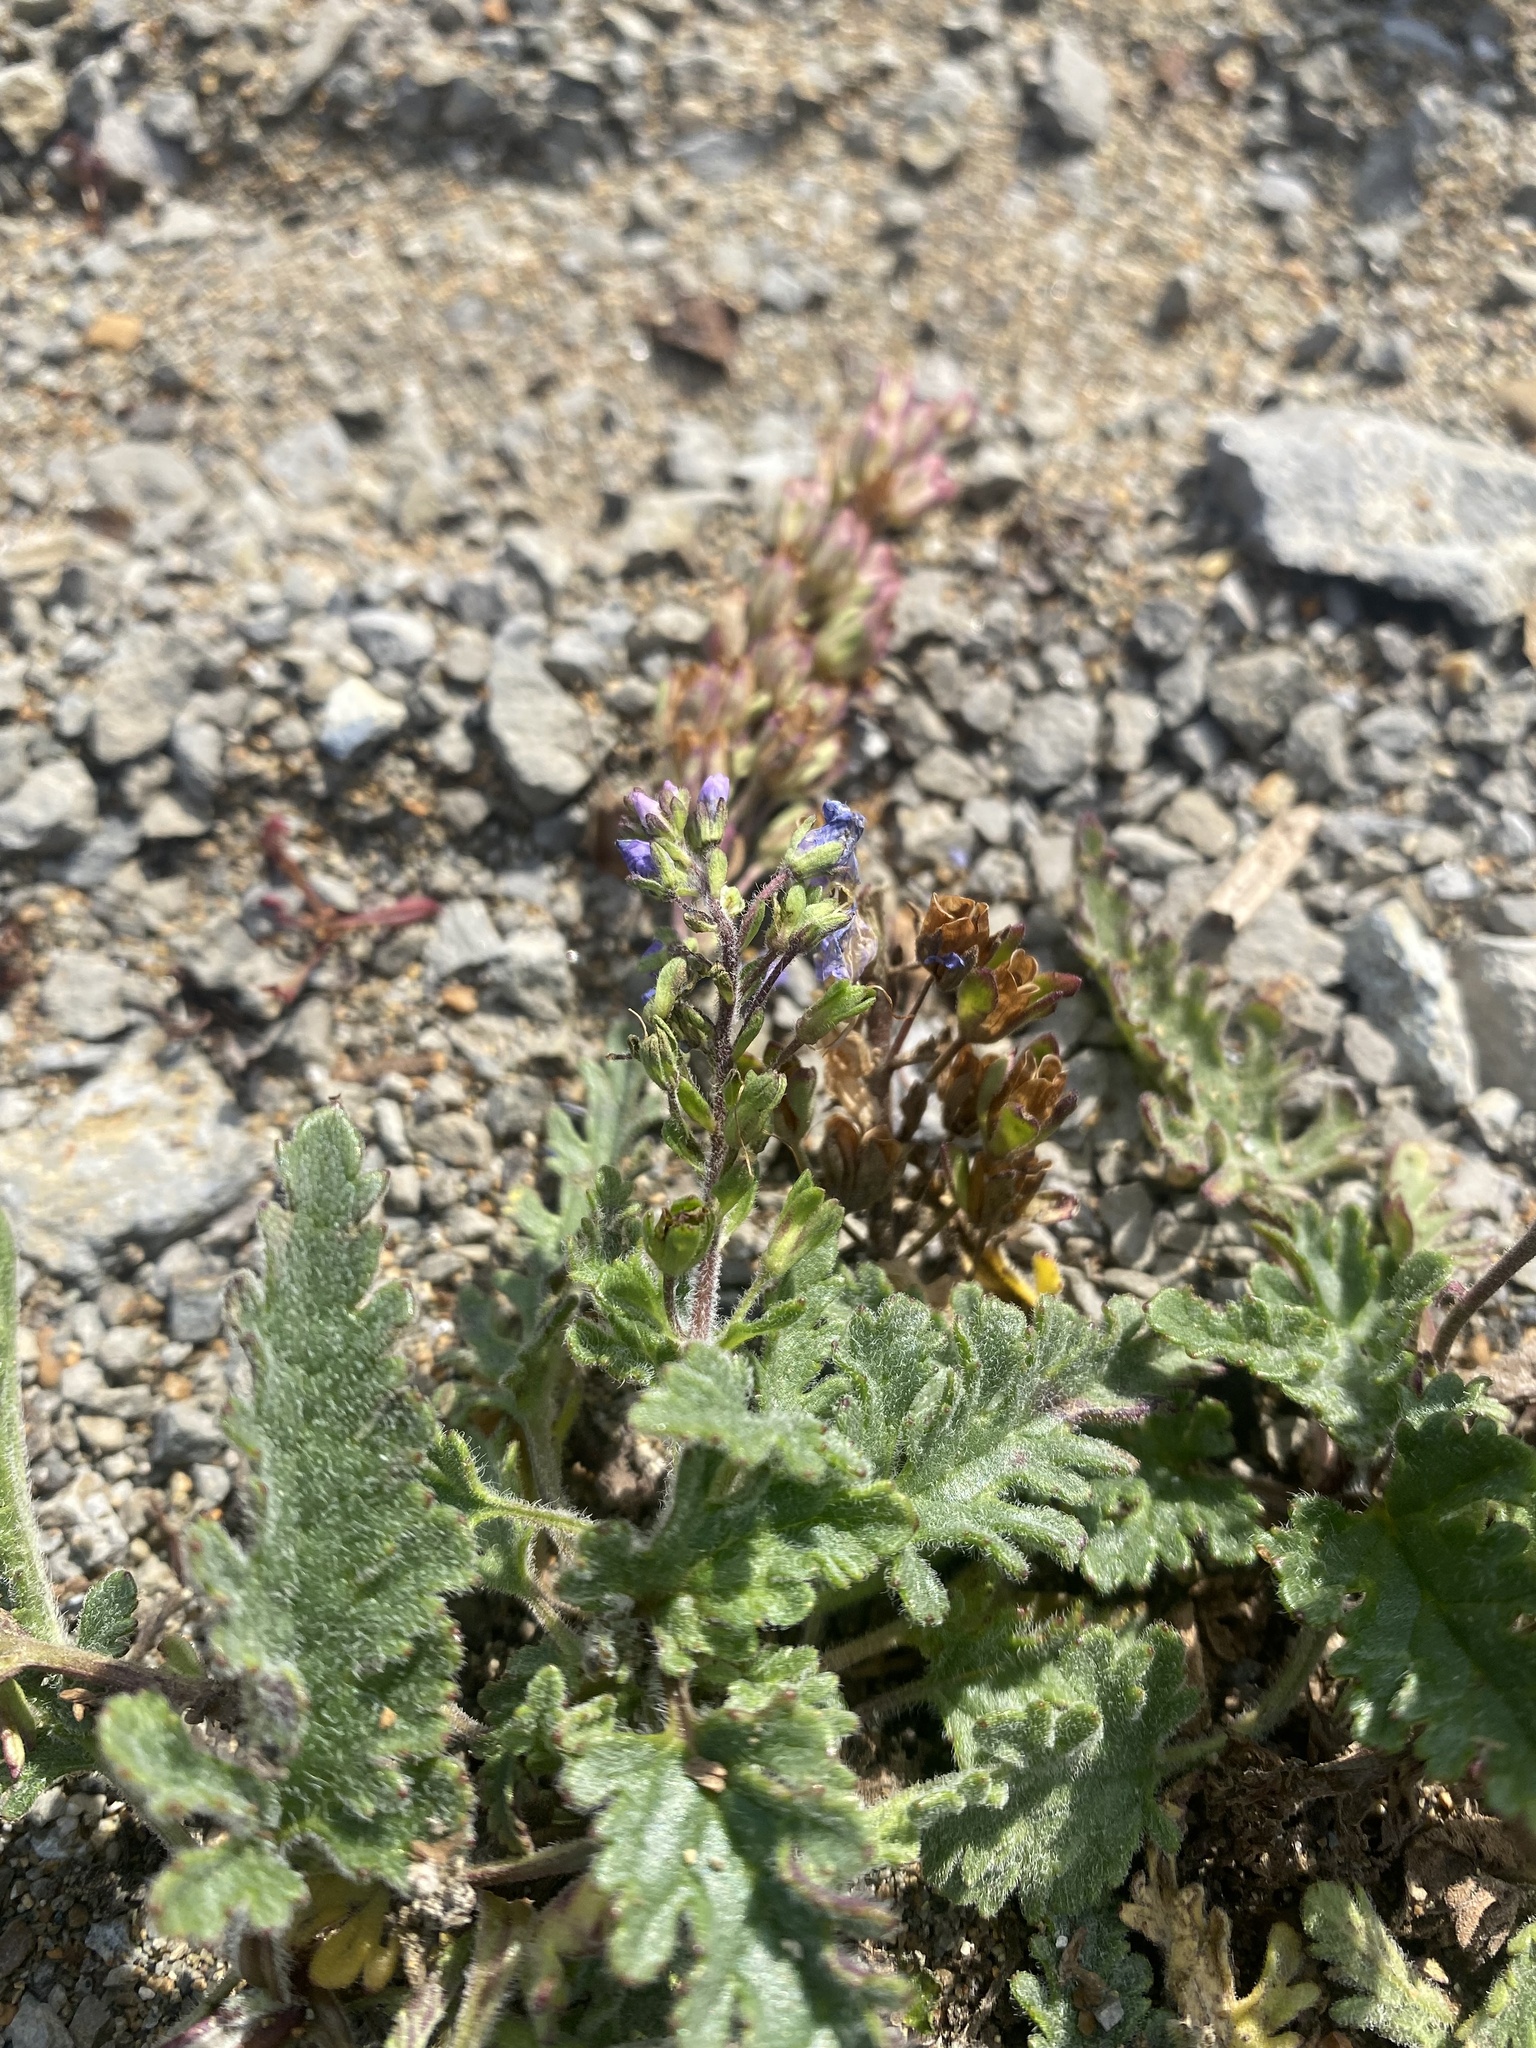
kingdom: Plantae
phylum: Tracheophyta
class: Magnoliopsida
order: Lamiales
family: Plantaginaceae
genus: Veronica
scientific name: Veronica schmidtiana
